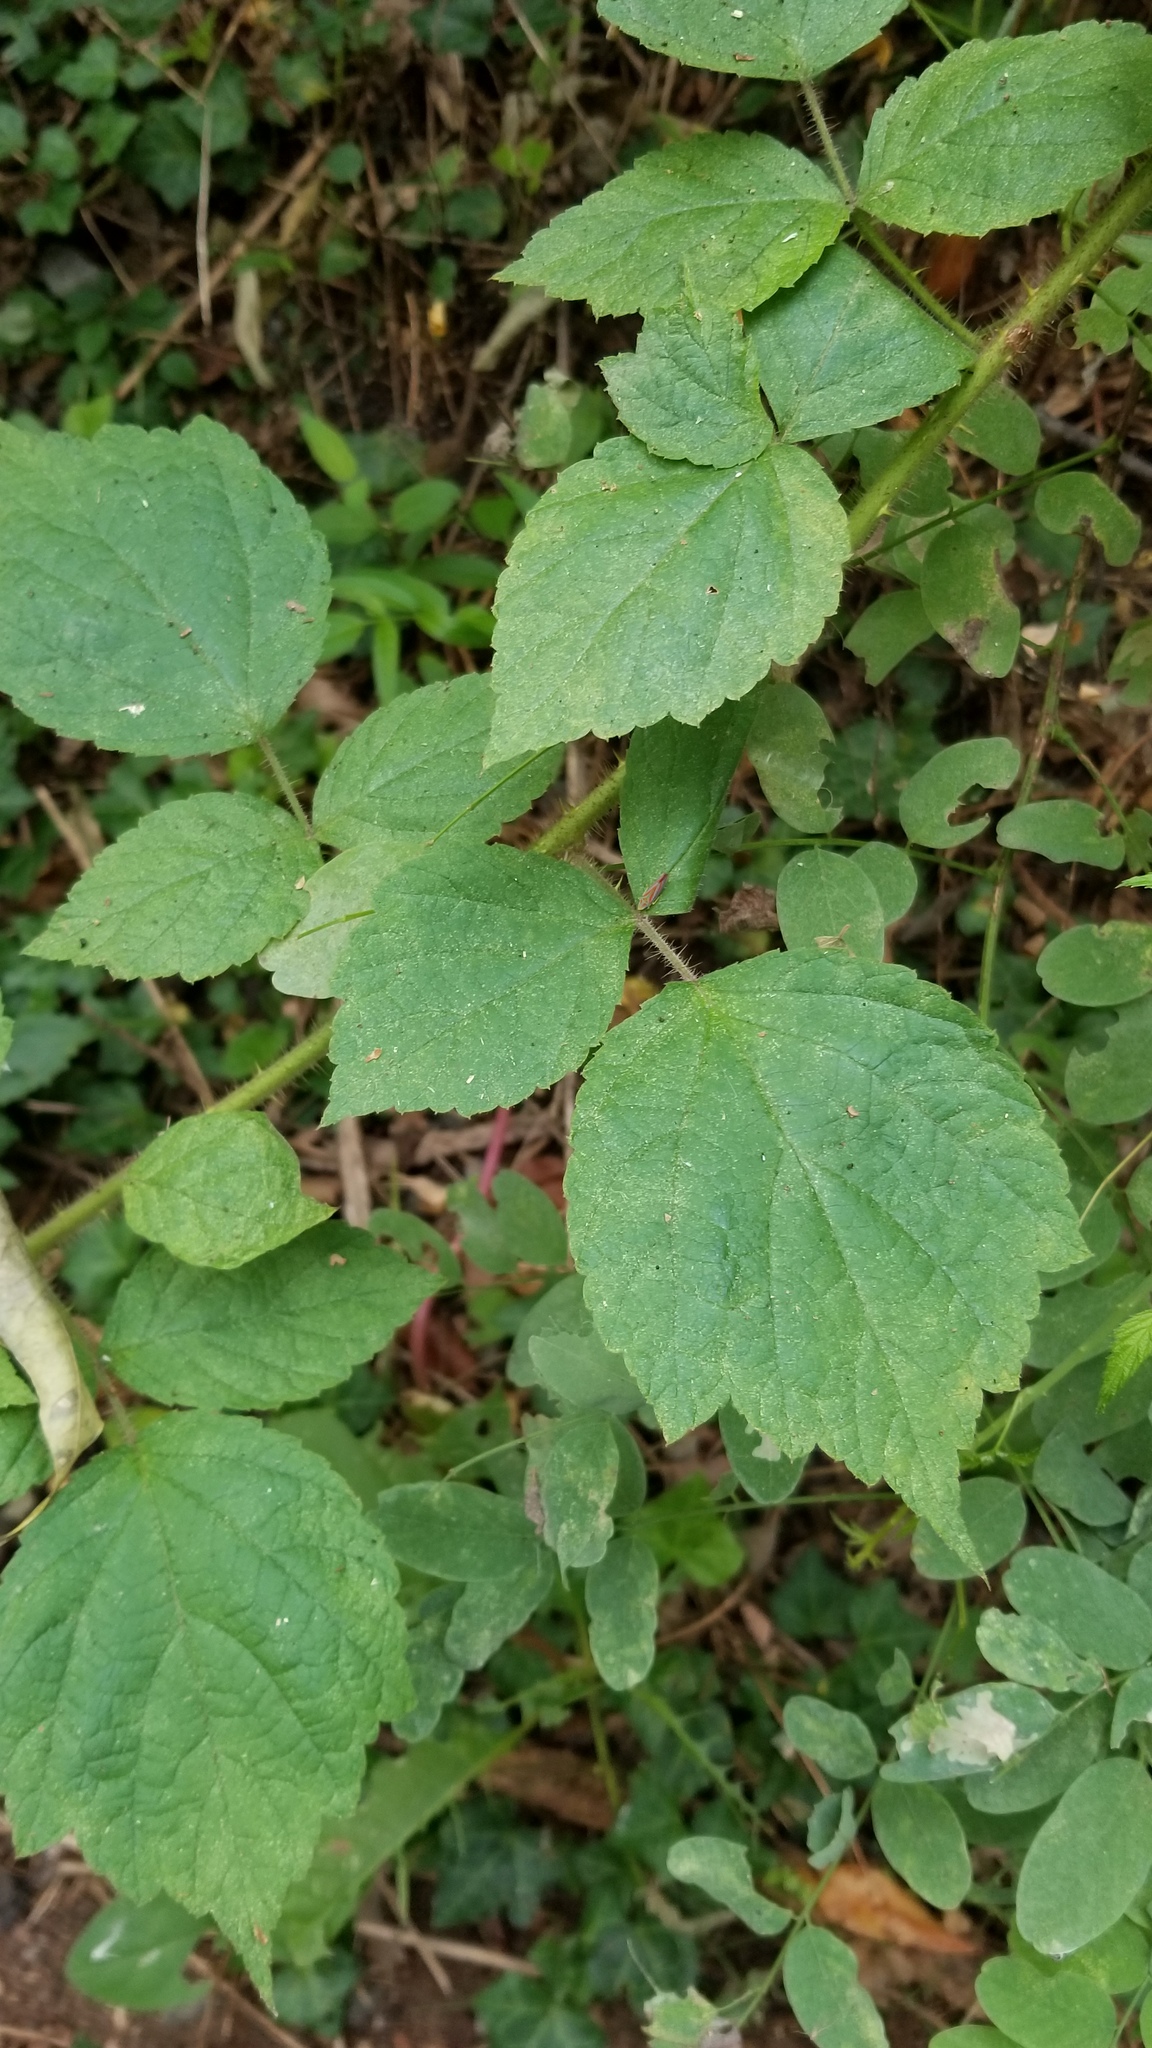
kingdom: Plantae
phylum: Tracheophyta
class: Magnoliopsida
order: Rosales
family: Rosaceae
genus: Rubus
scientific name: Rubus phoenicolasius
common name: Japanese wineberry
